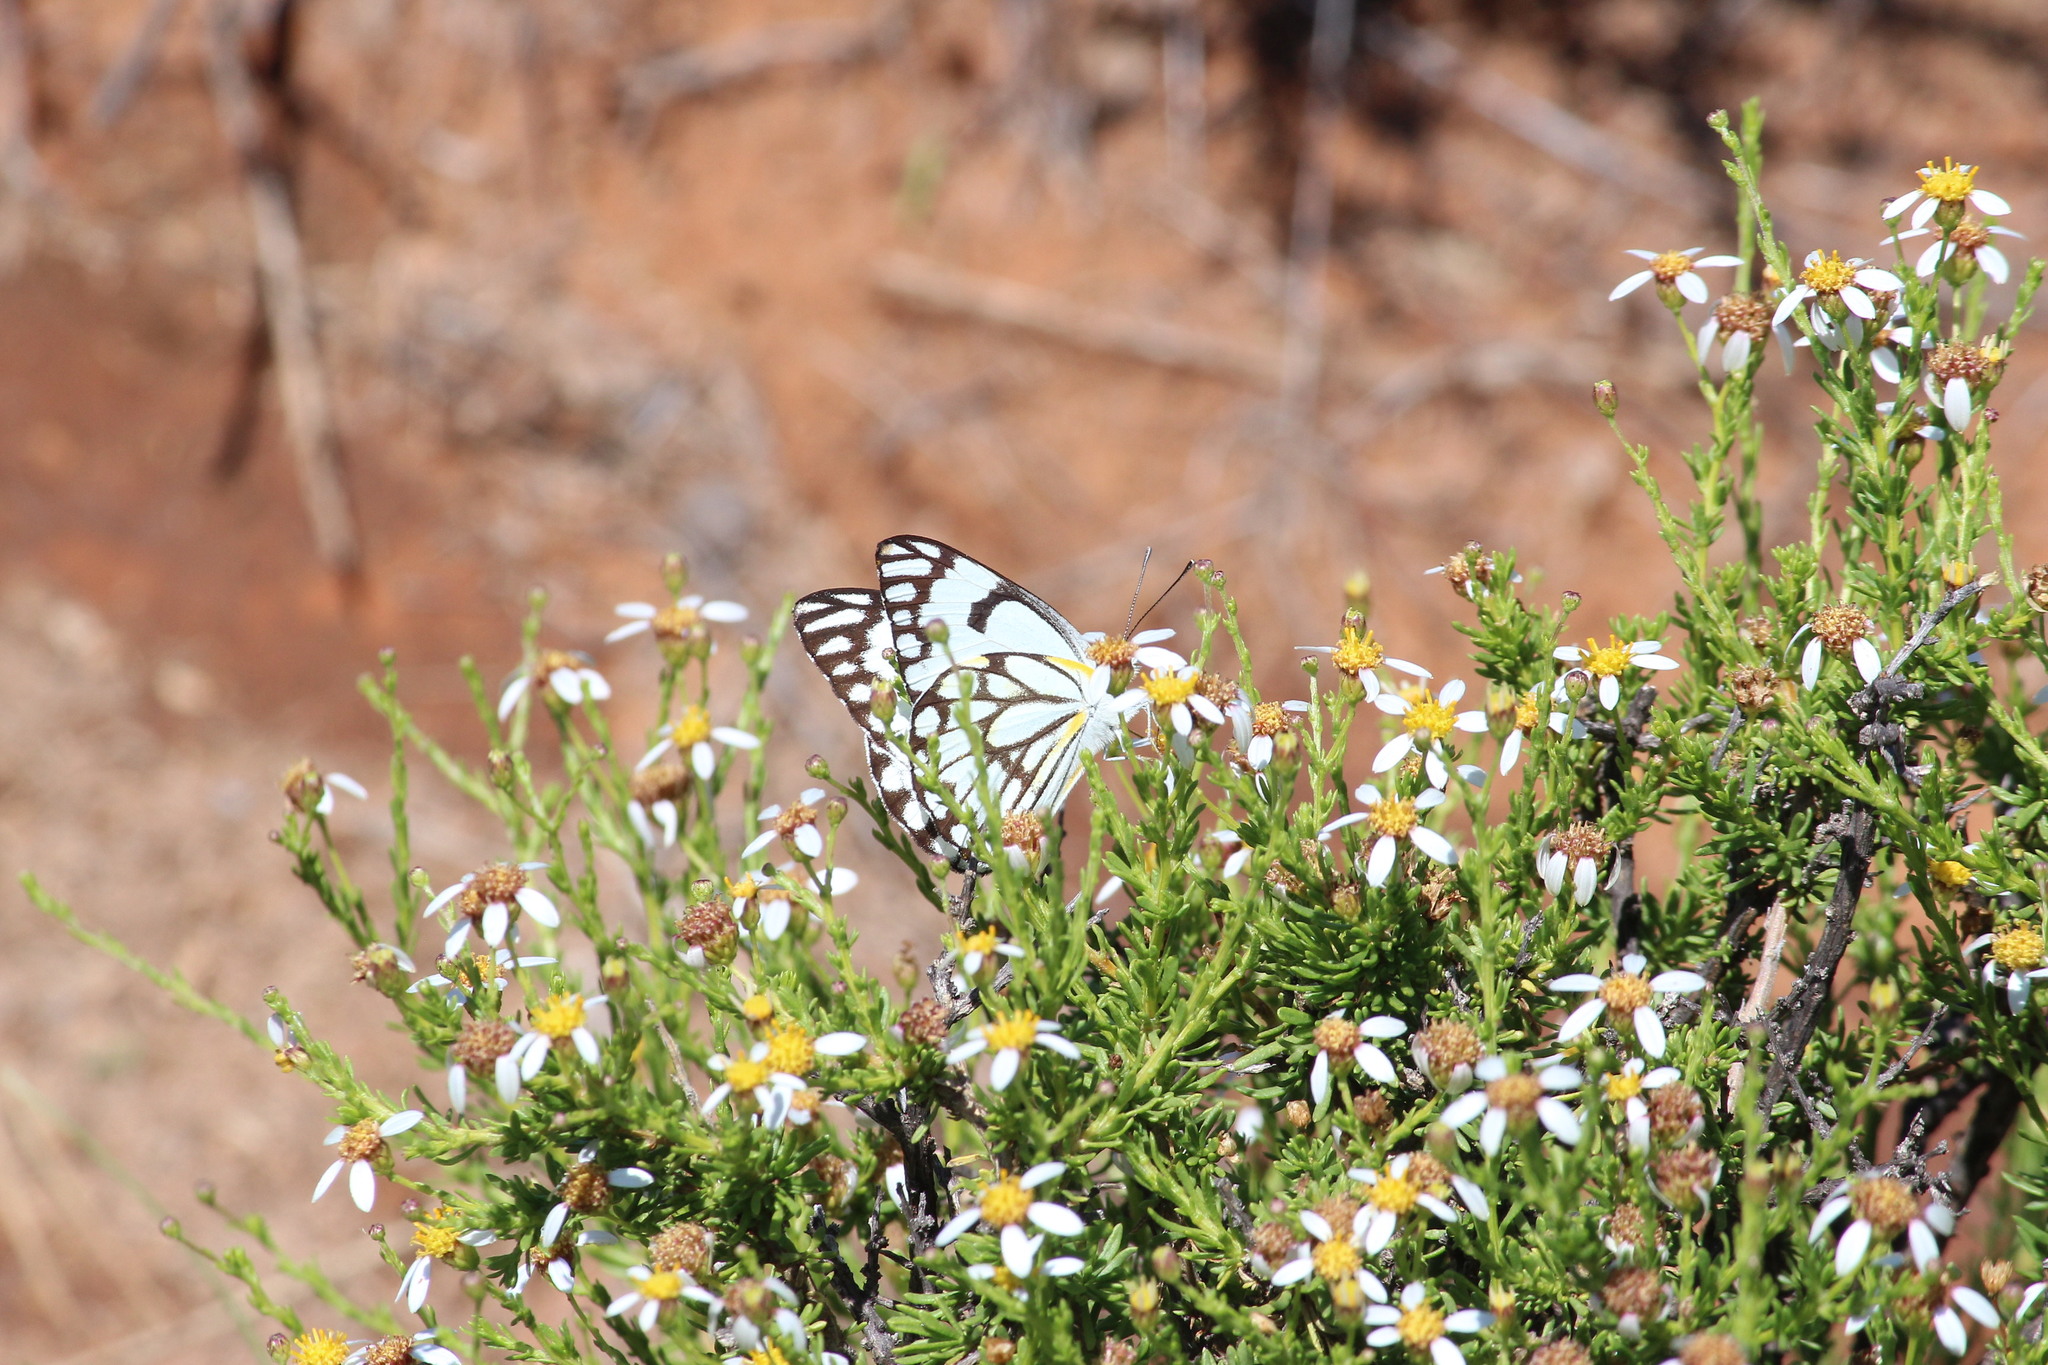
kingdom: Animalia
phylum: Arthropoda
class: Insecta
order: Lepidoptera
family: Pieridae
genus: Belenois
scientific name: Belenois aurota
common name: Brown-veined white
